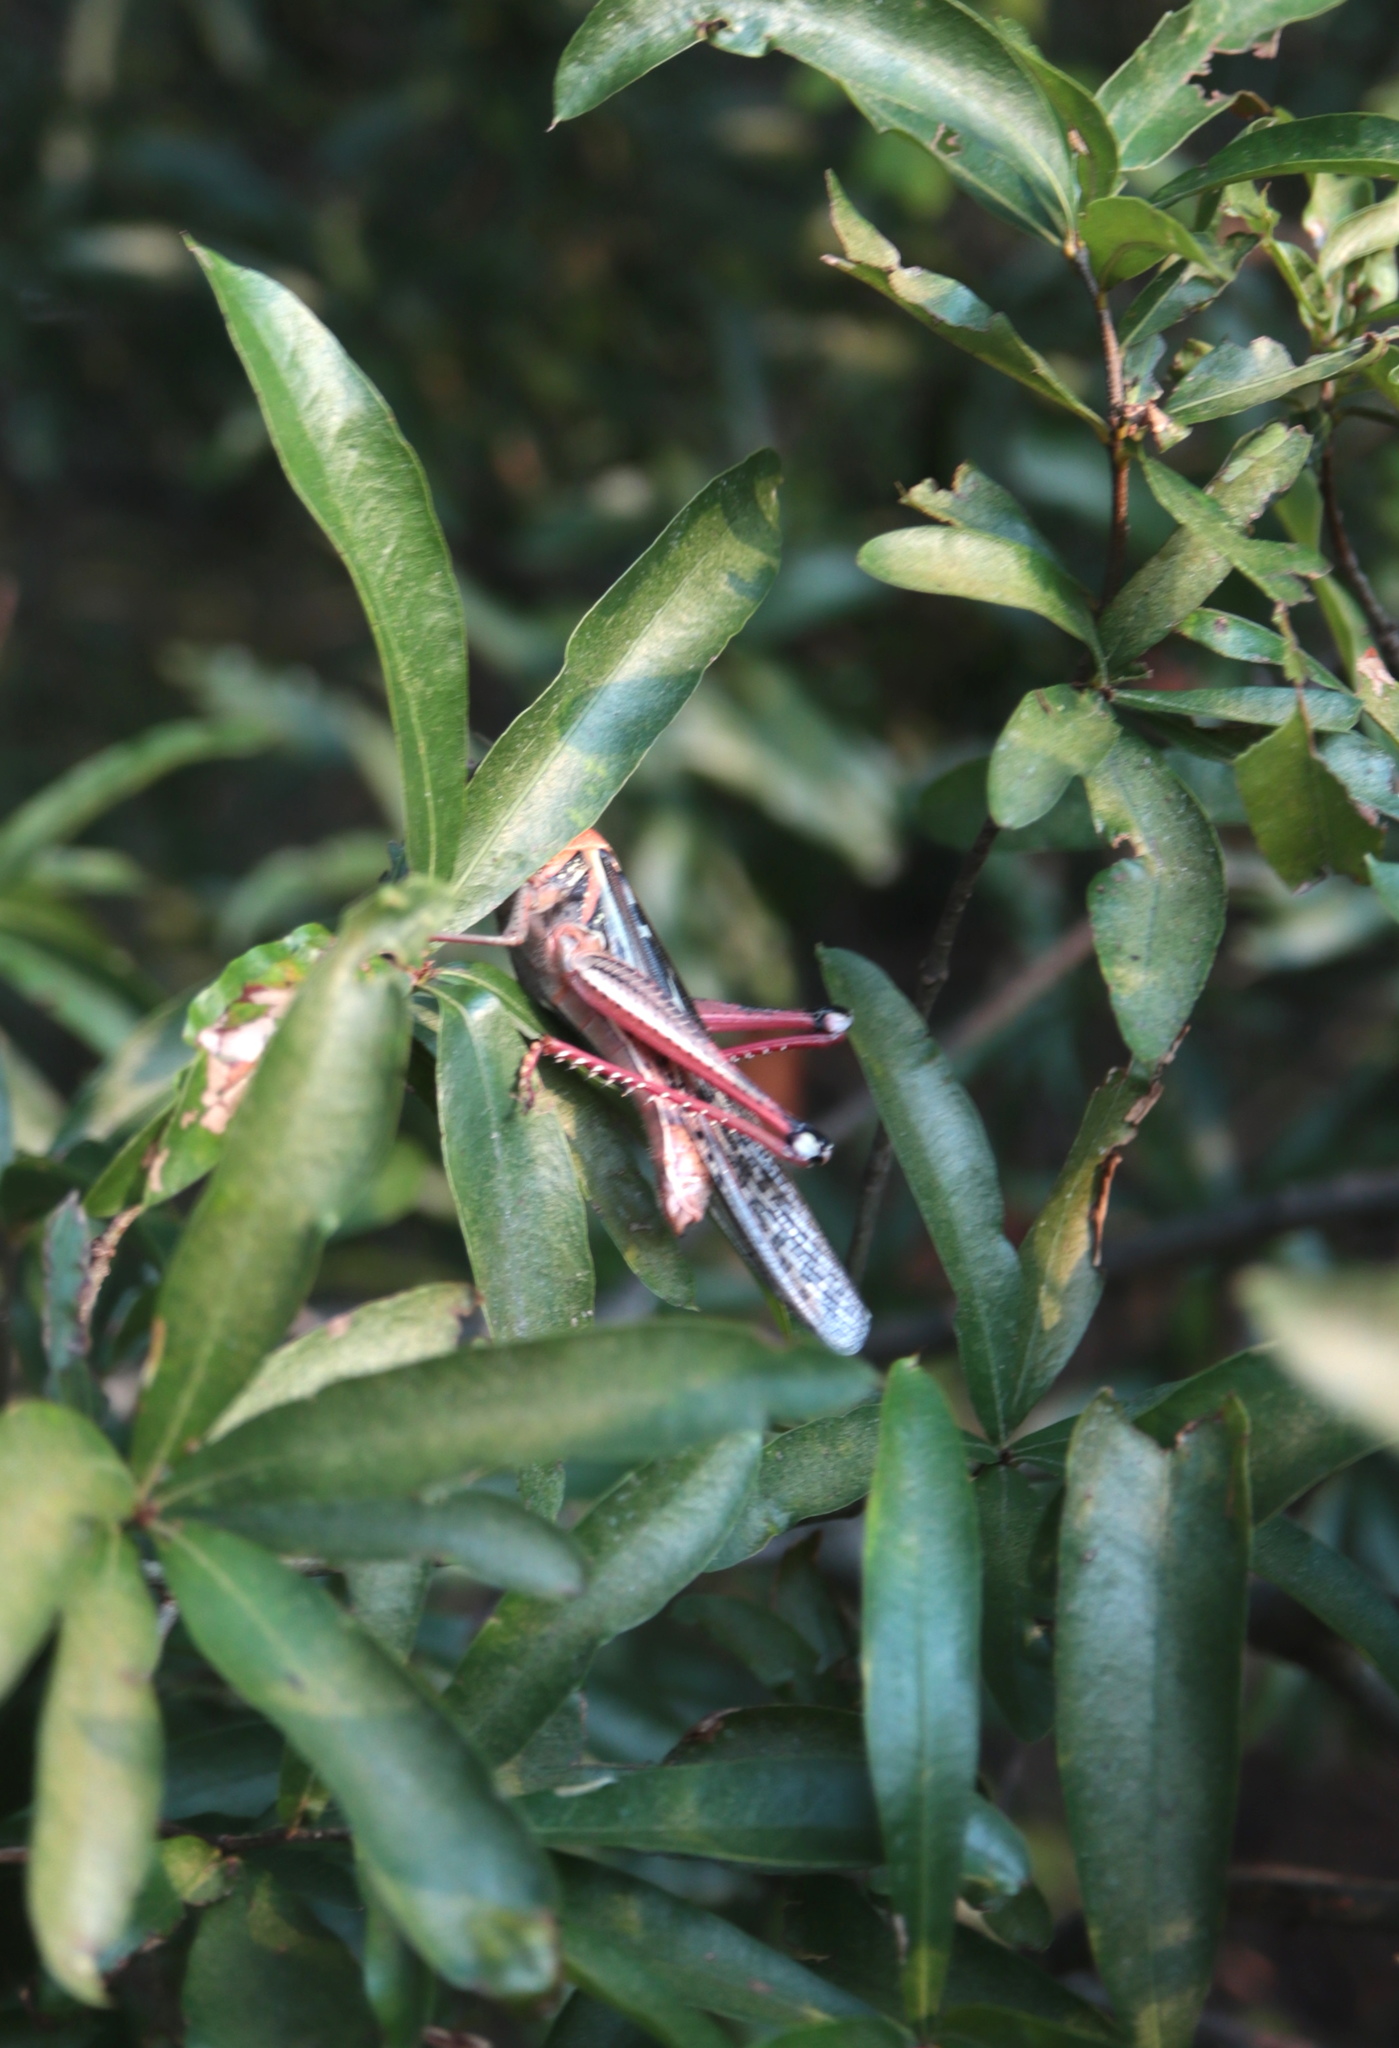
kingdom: Animalia
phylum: Arthropoda
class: Insecta
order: Orthoptera
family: Acrididae
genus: Schistocerca
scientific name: Schistocerca americana
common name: American bird locust
